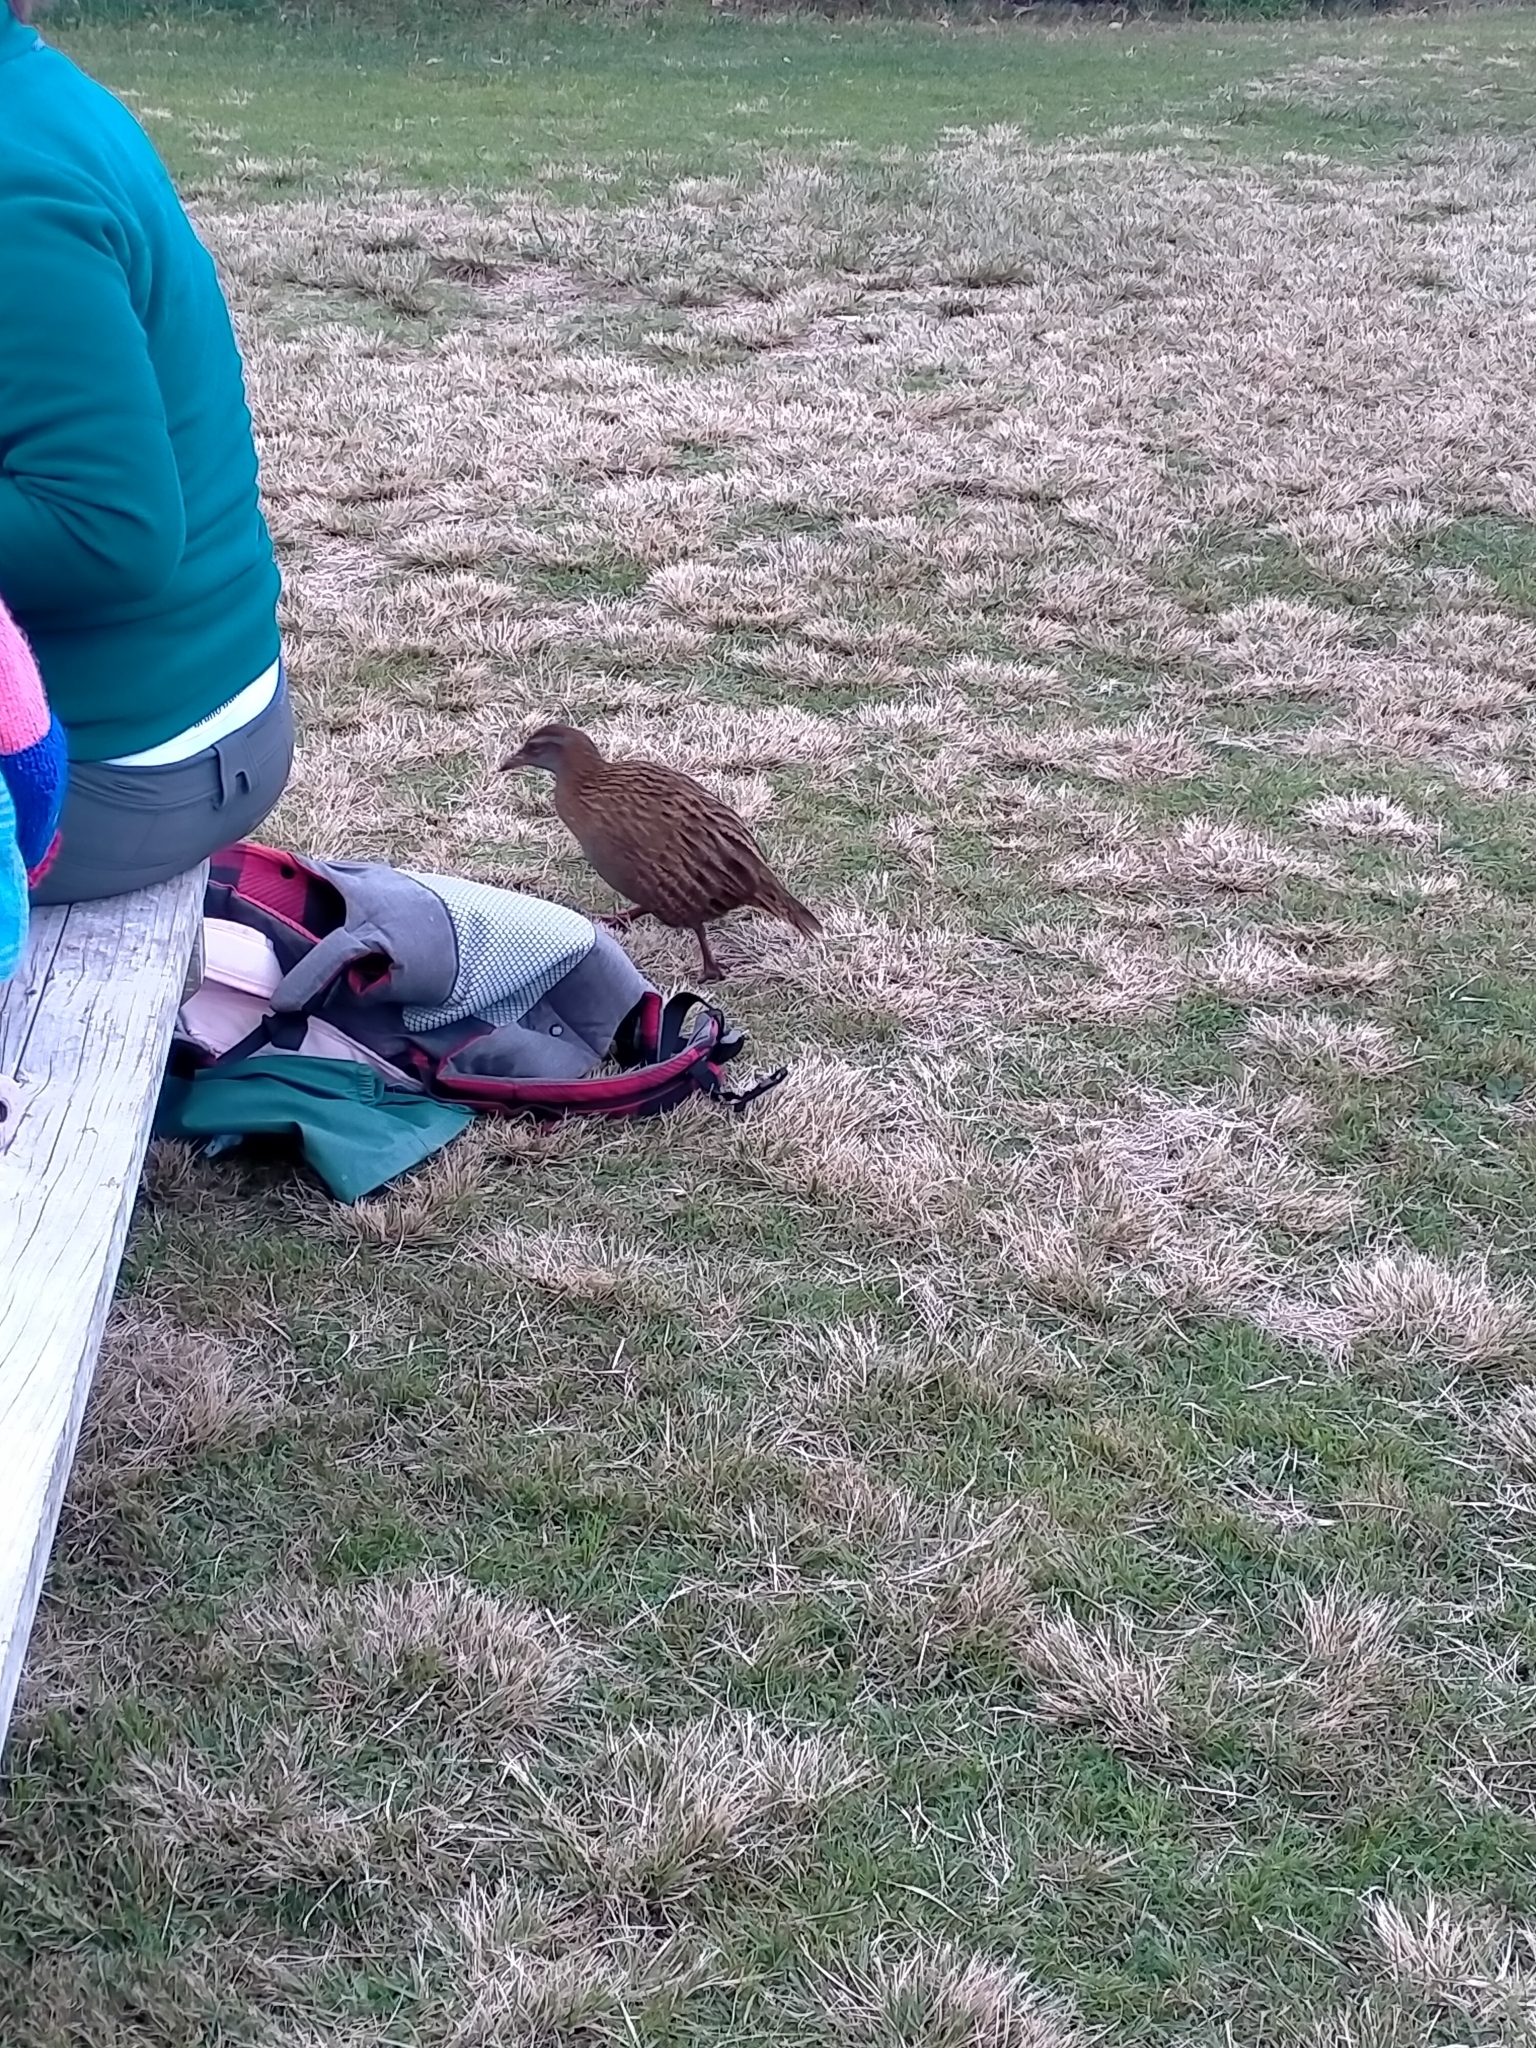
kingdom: Animalia
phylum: Chordata
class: Aves
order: Gruiformes
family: Rallidae
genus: Gallirallus
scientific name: Gallirallus
